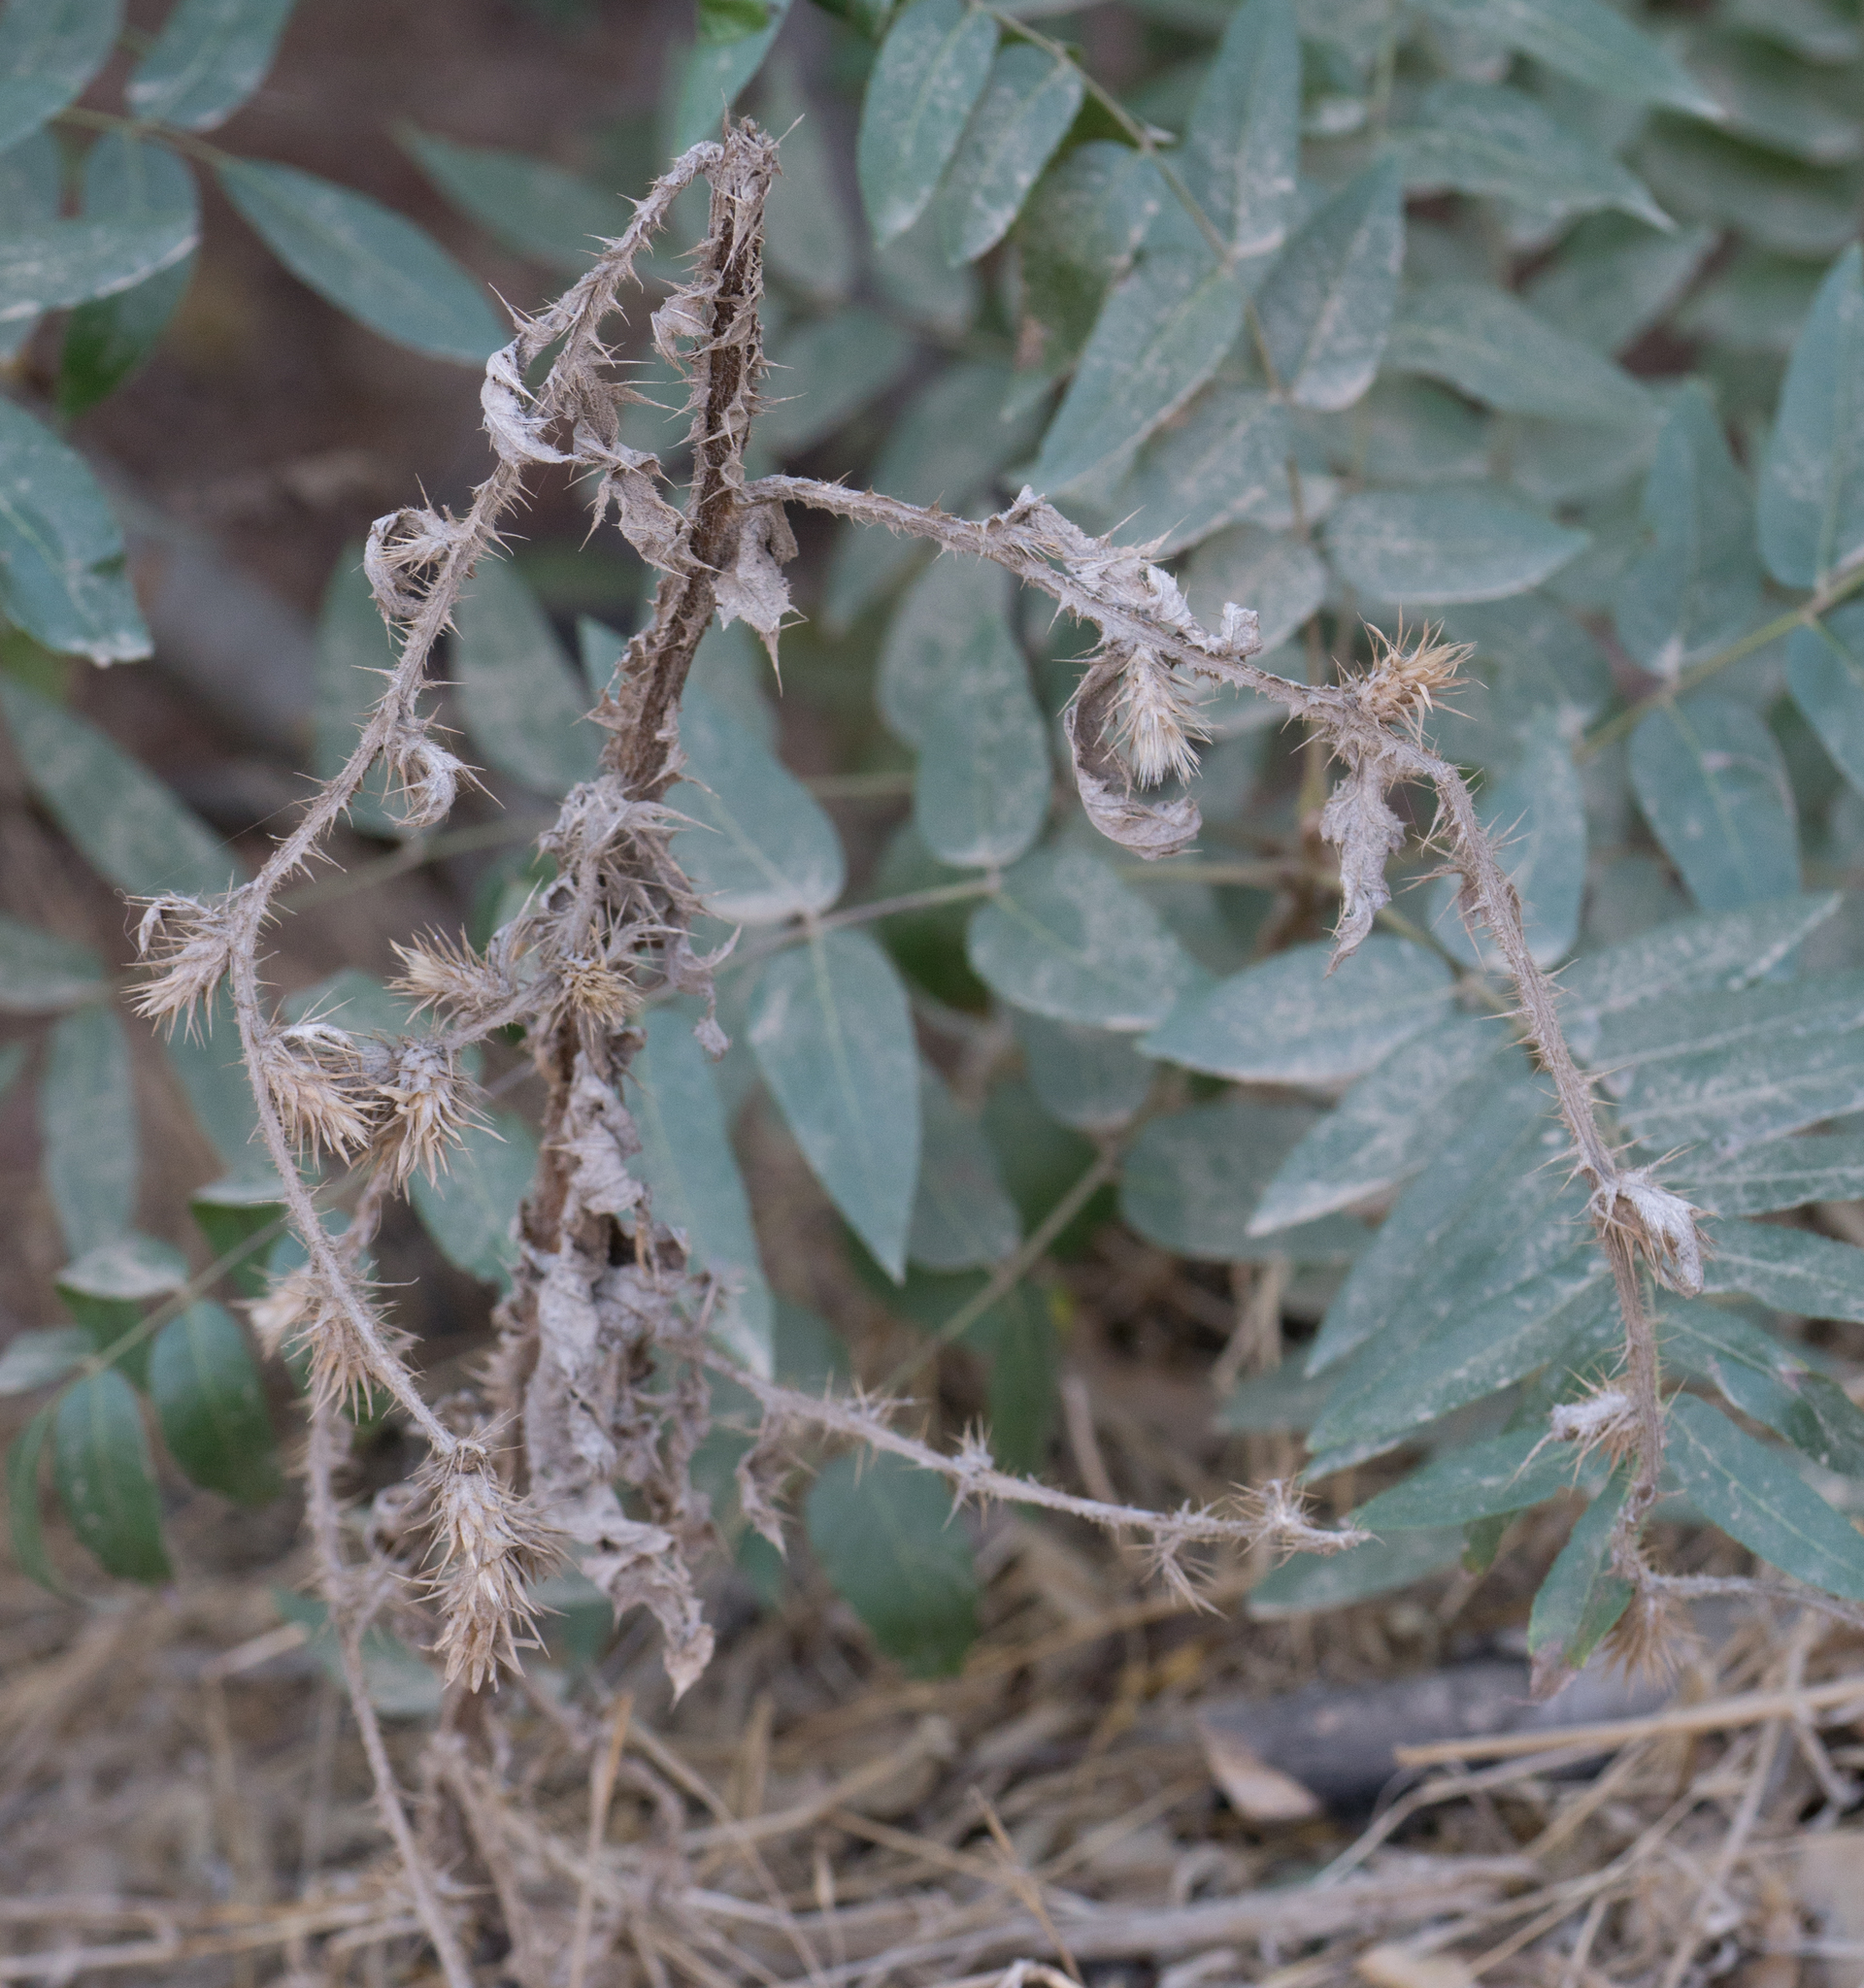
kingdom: Plantae
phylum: Tracheophyta
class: Magnoliopsida
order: Asterales
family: Asteraceae
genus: Carduus
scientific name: Carduus pycnocephalus
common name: Plymouth thistle
